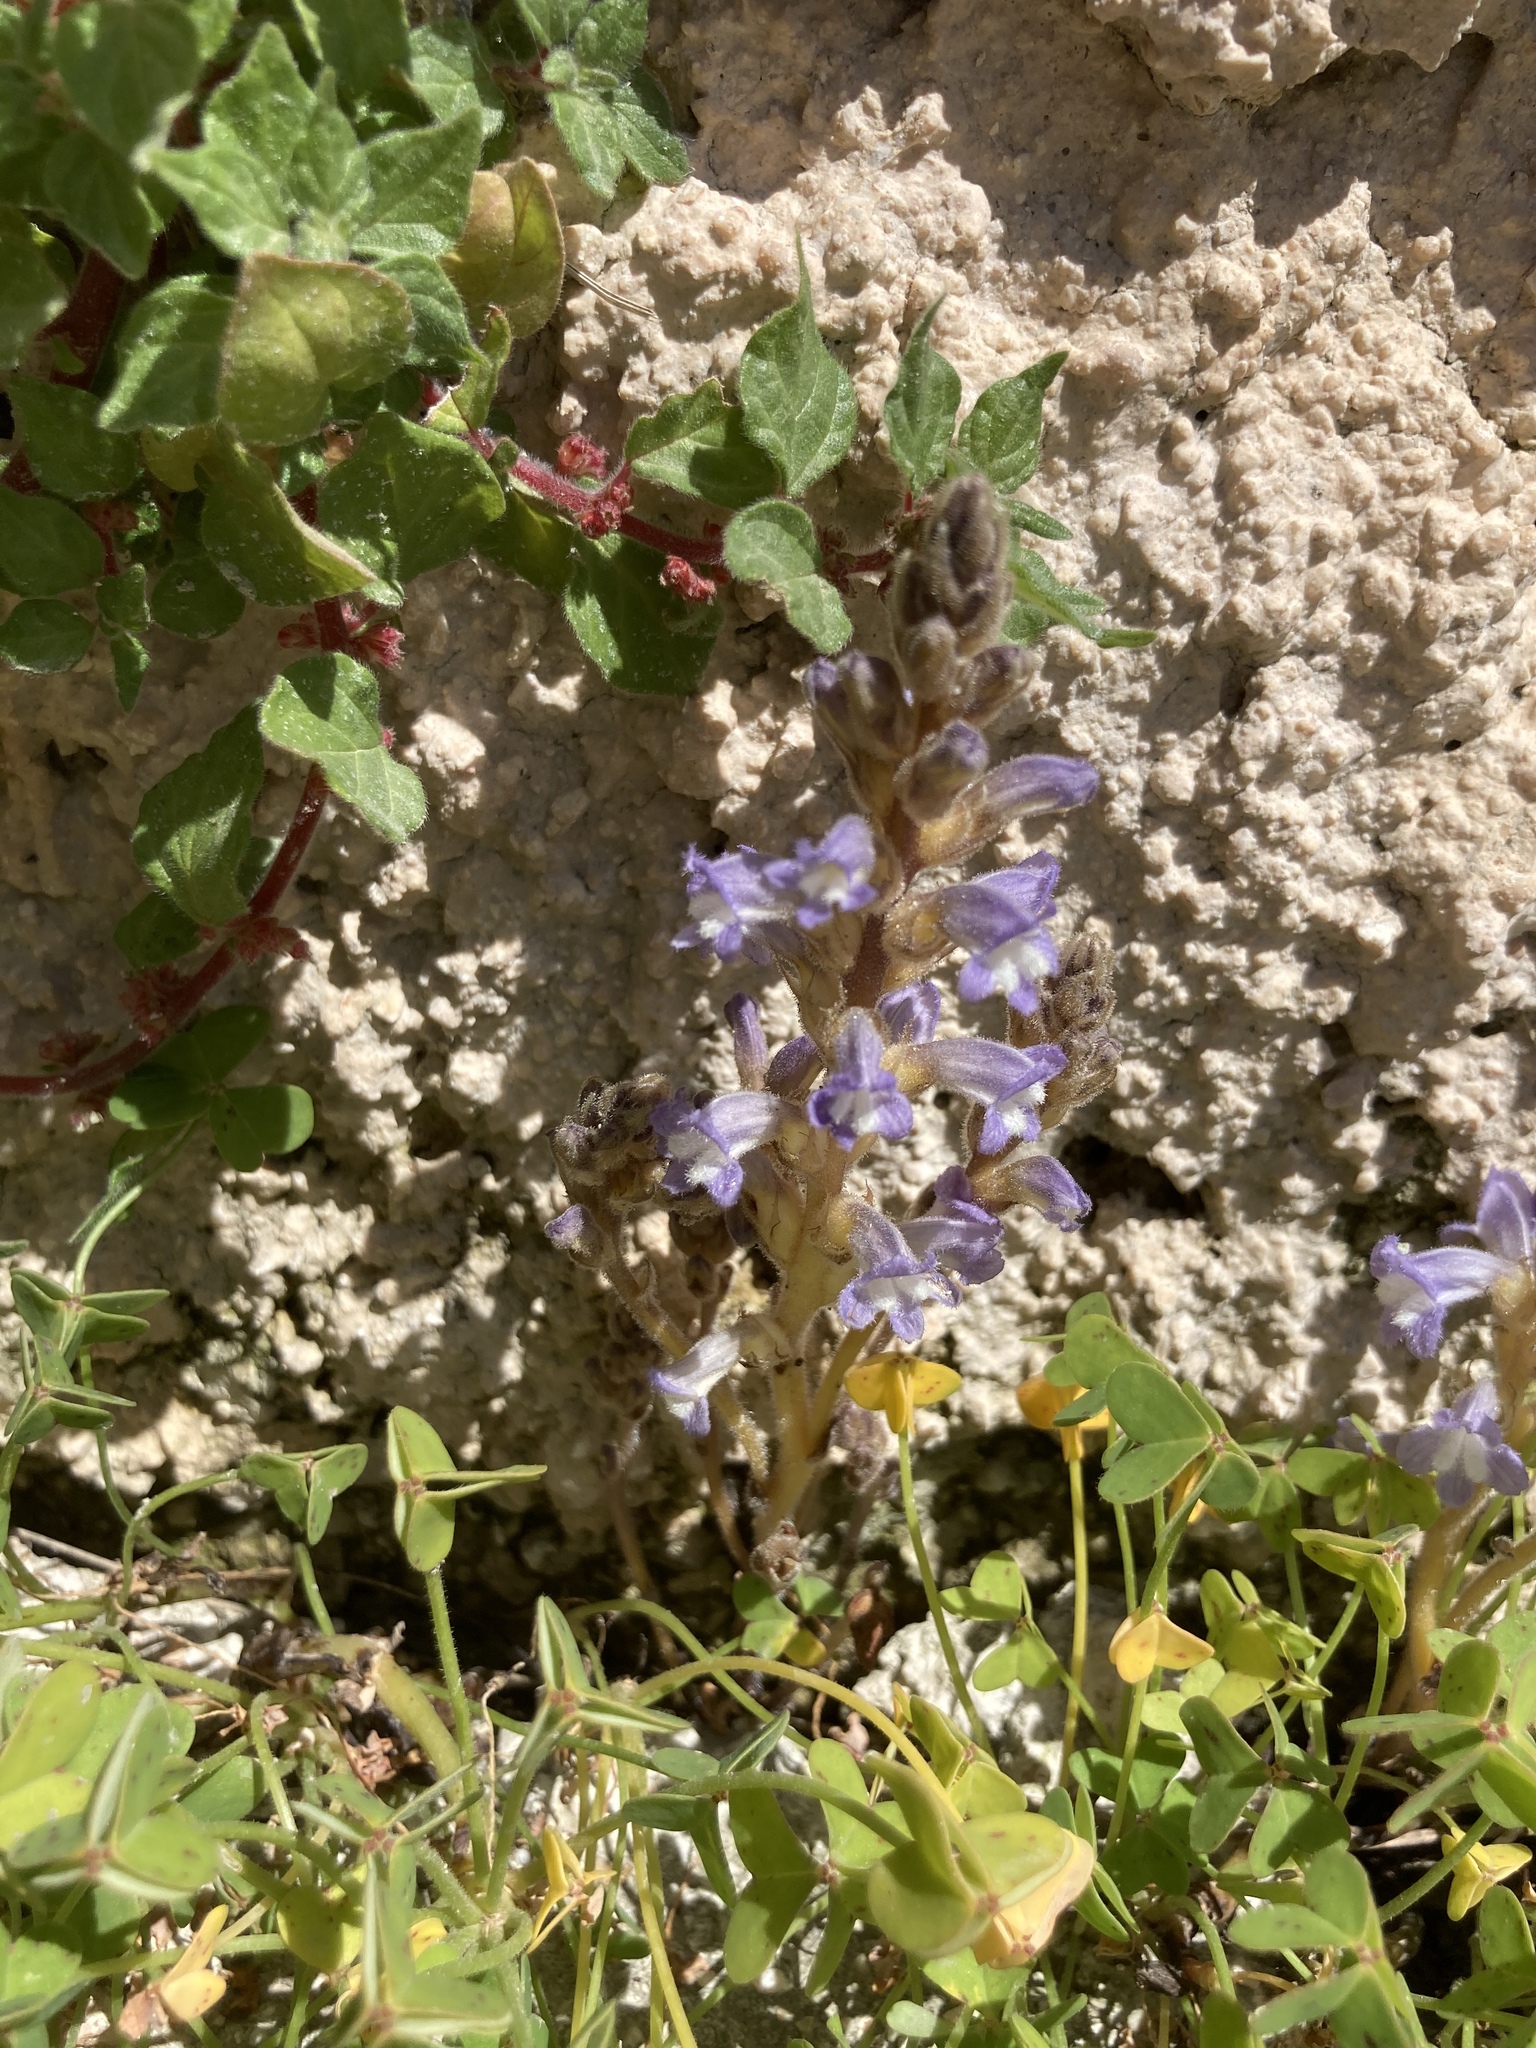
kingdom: Plantae
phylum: Tracheophyta
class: Magnoliopsida
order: Lamiales
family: Orobanchaceae
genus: Phelipanche
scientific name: Phelipanche mutelii
